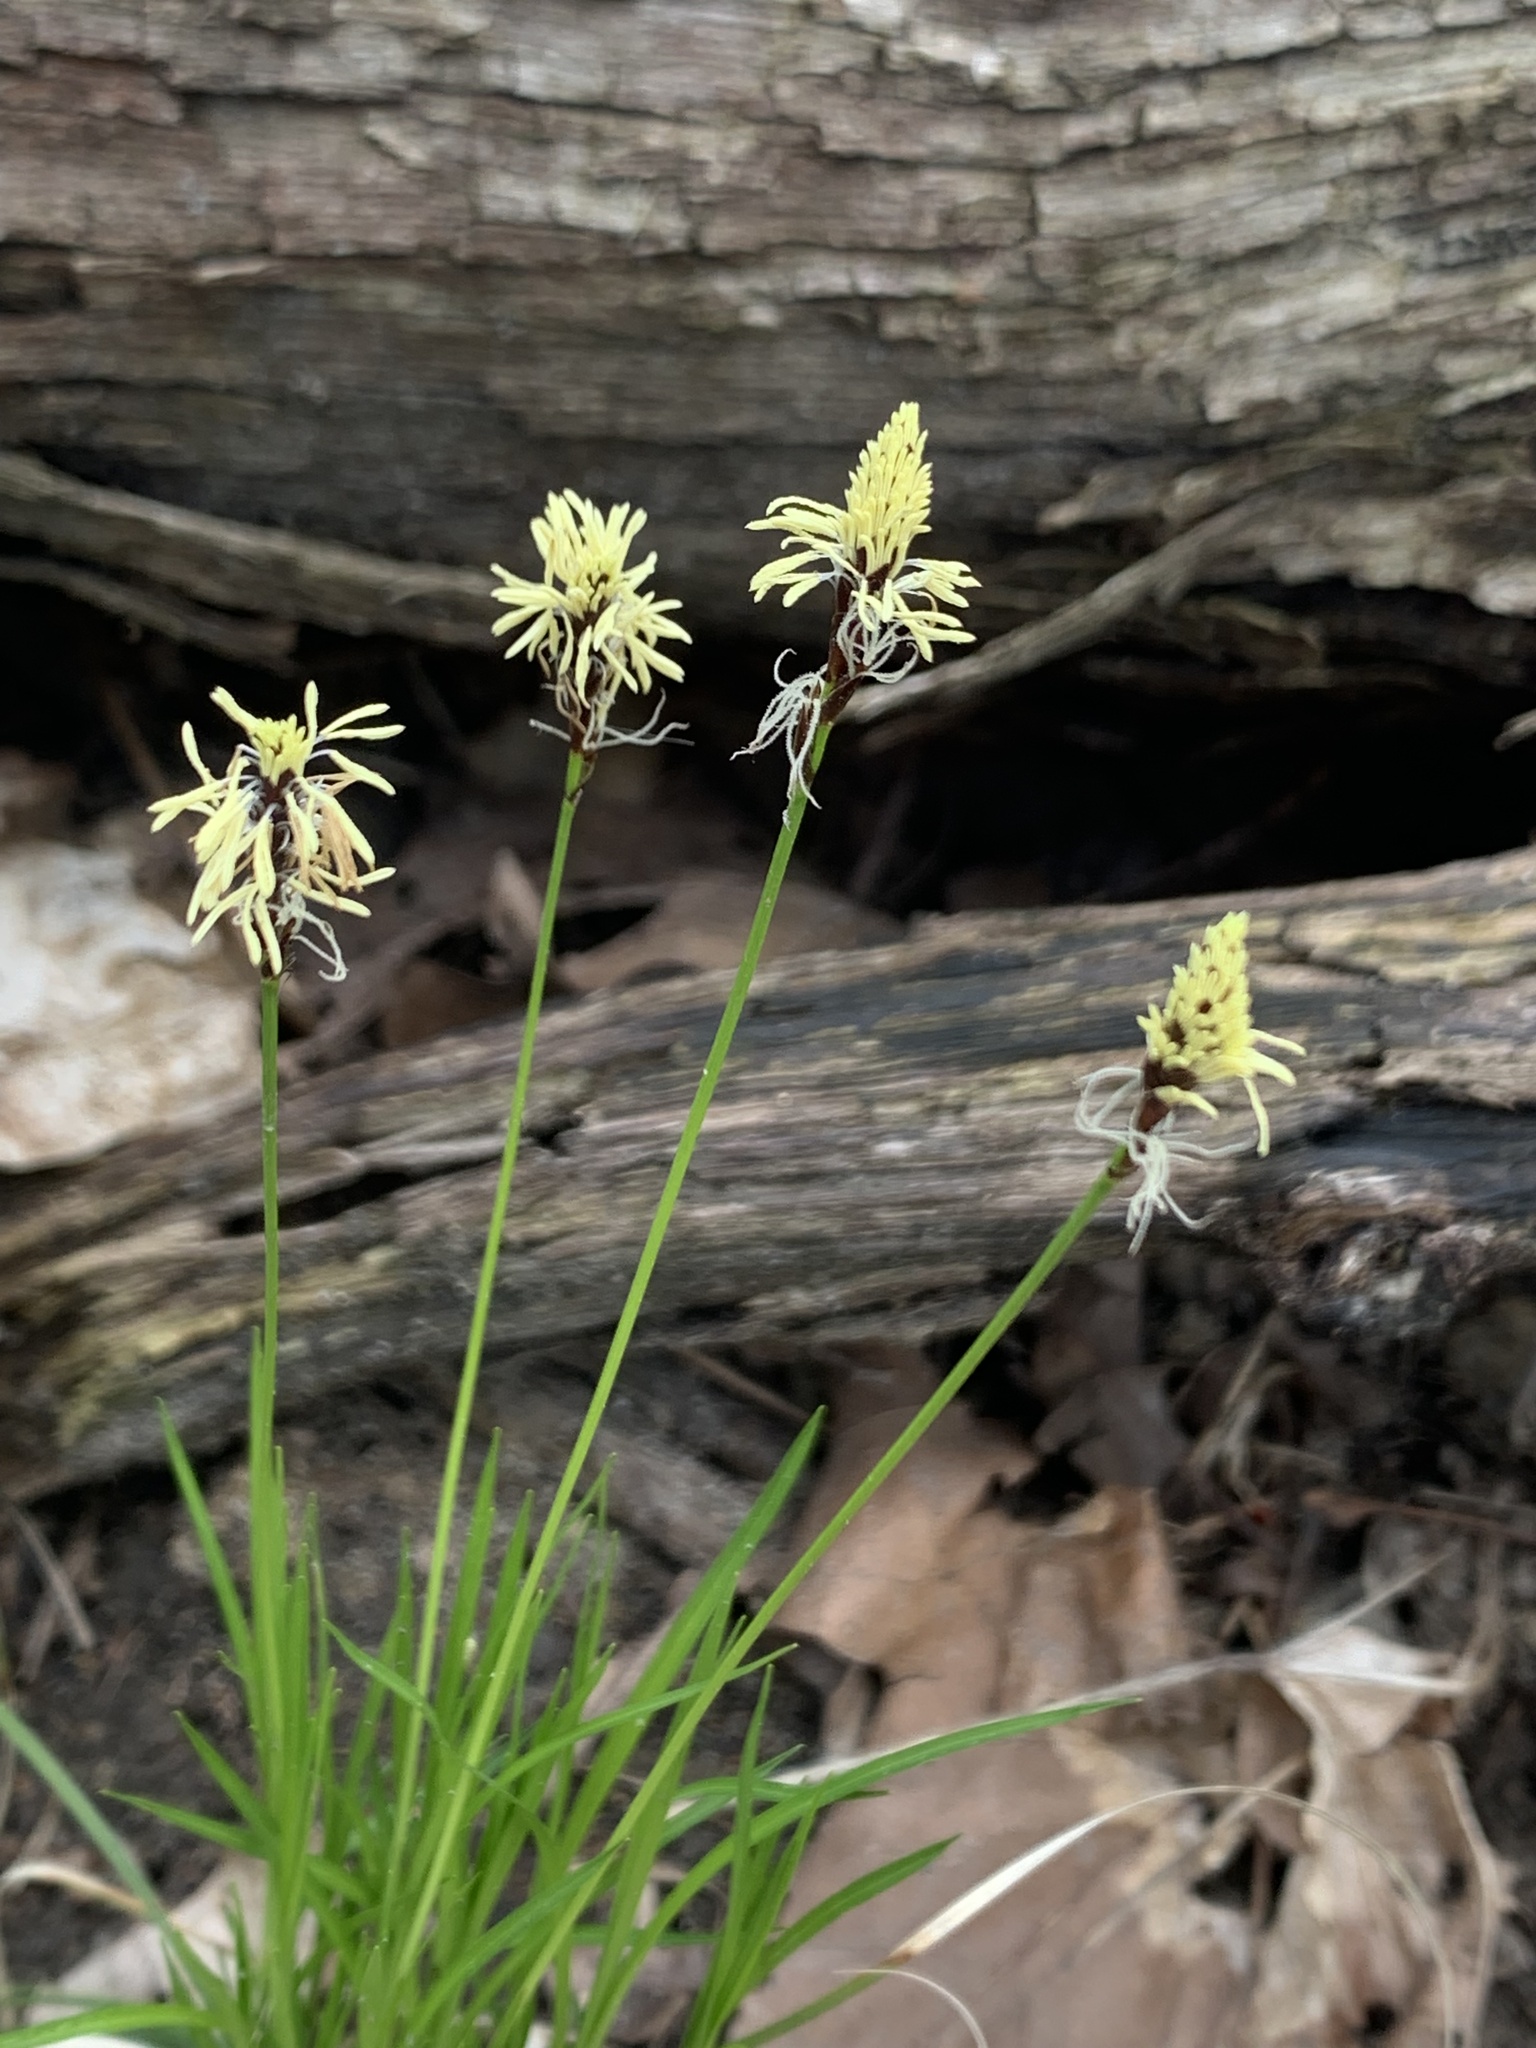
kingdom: Plantae
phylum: Tracheophyta
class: Liliopsida
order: Poales
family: Cyperaceae
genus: Carex
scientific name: Carex pensylvanica
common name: Common oak sedge
